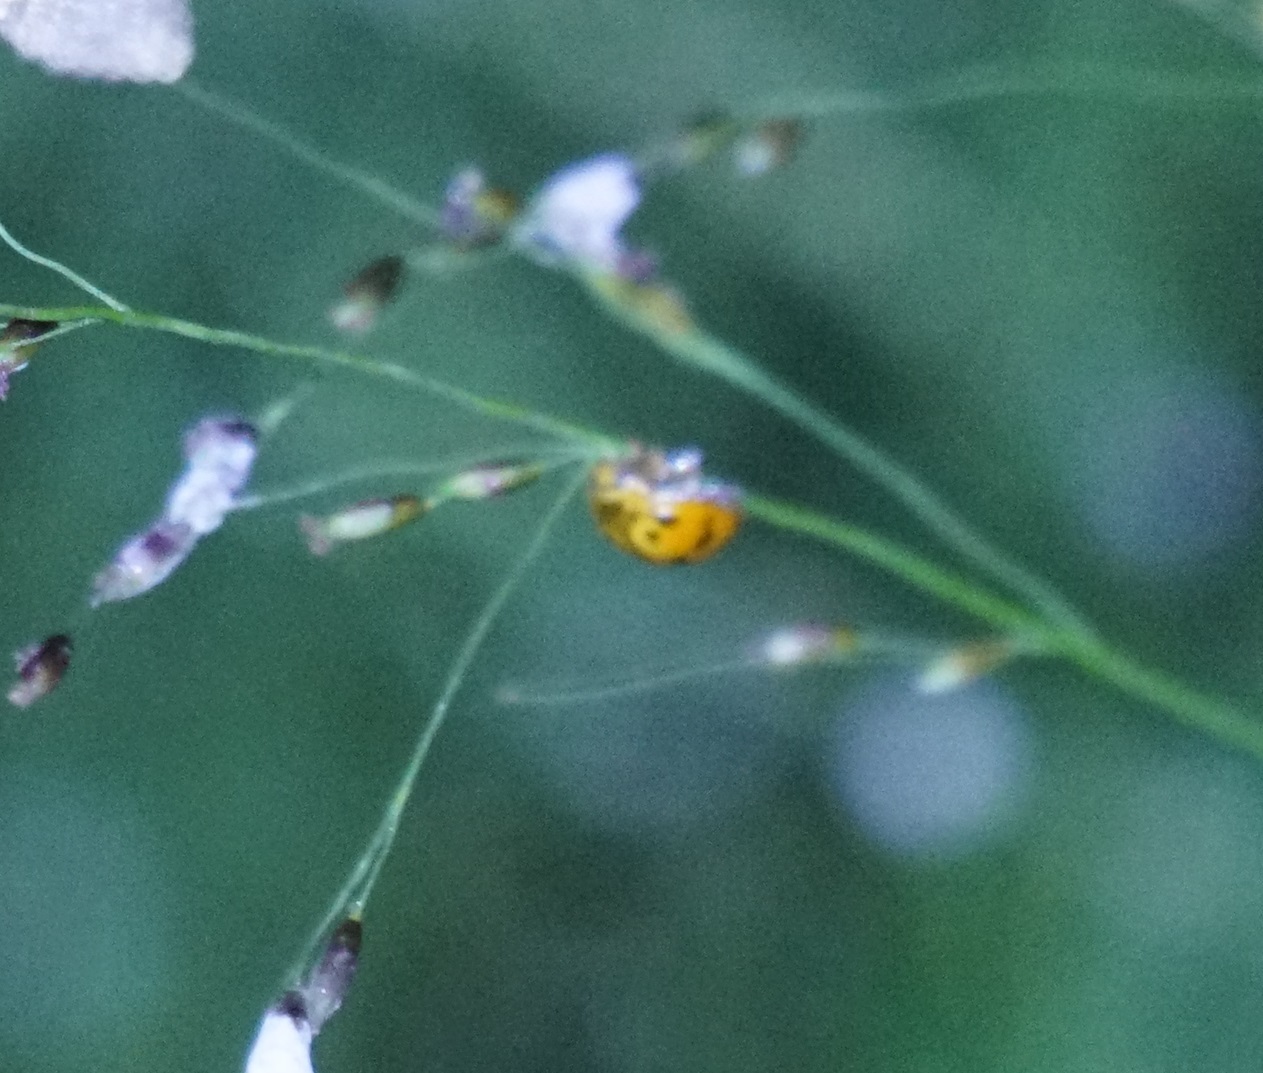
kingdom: Animalia
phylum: Arthropoda
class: Insecta
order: Coleoptera
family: Coccinellidae
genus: Harmonia
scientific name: Harmonia octomaculata
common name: Lady beetle
